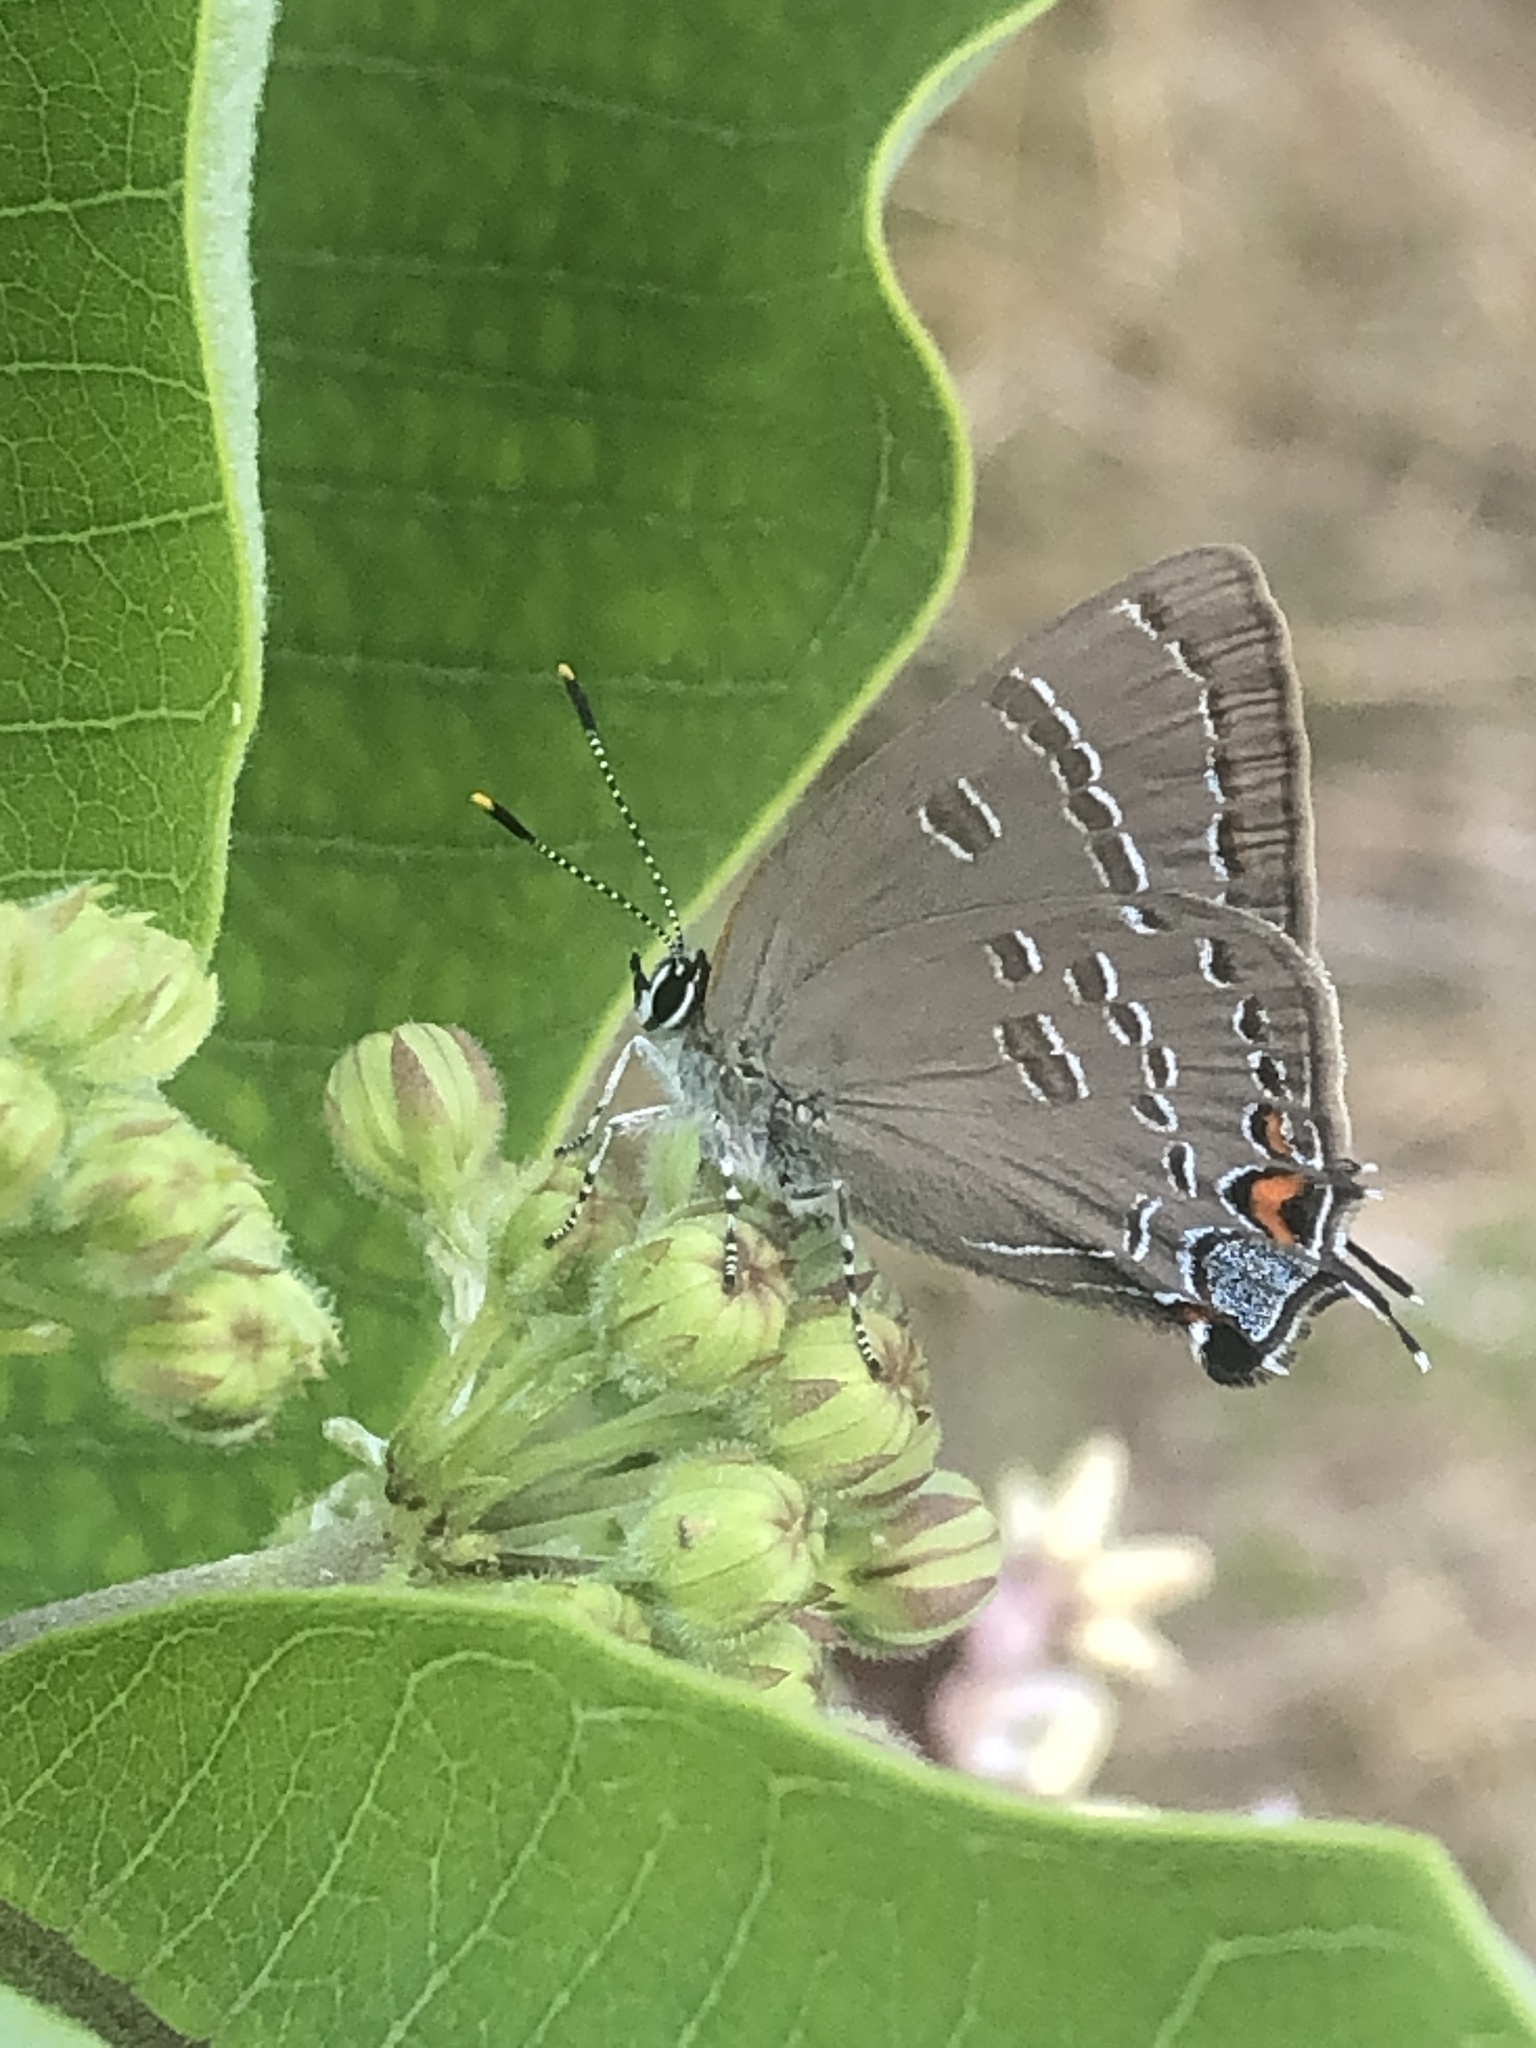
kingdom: Animalia
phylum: Arthropoda
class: Insecta
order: Lepidoptera
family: Lycaenidae
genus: Satyrium
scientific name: Satyrium calanus
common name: Banded hairstreak
